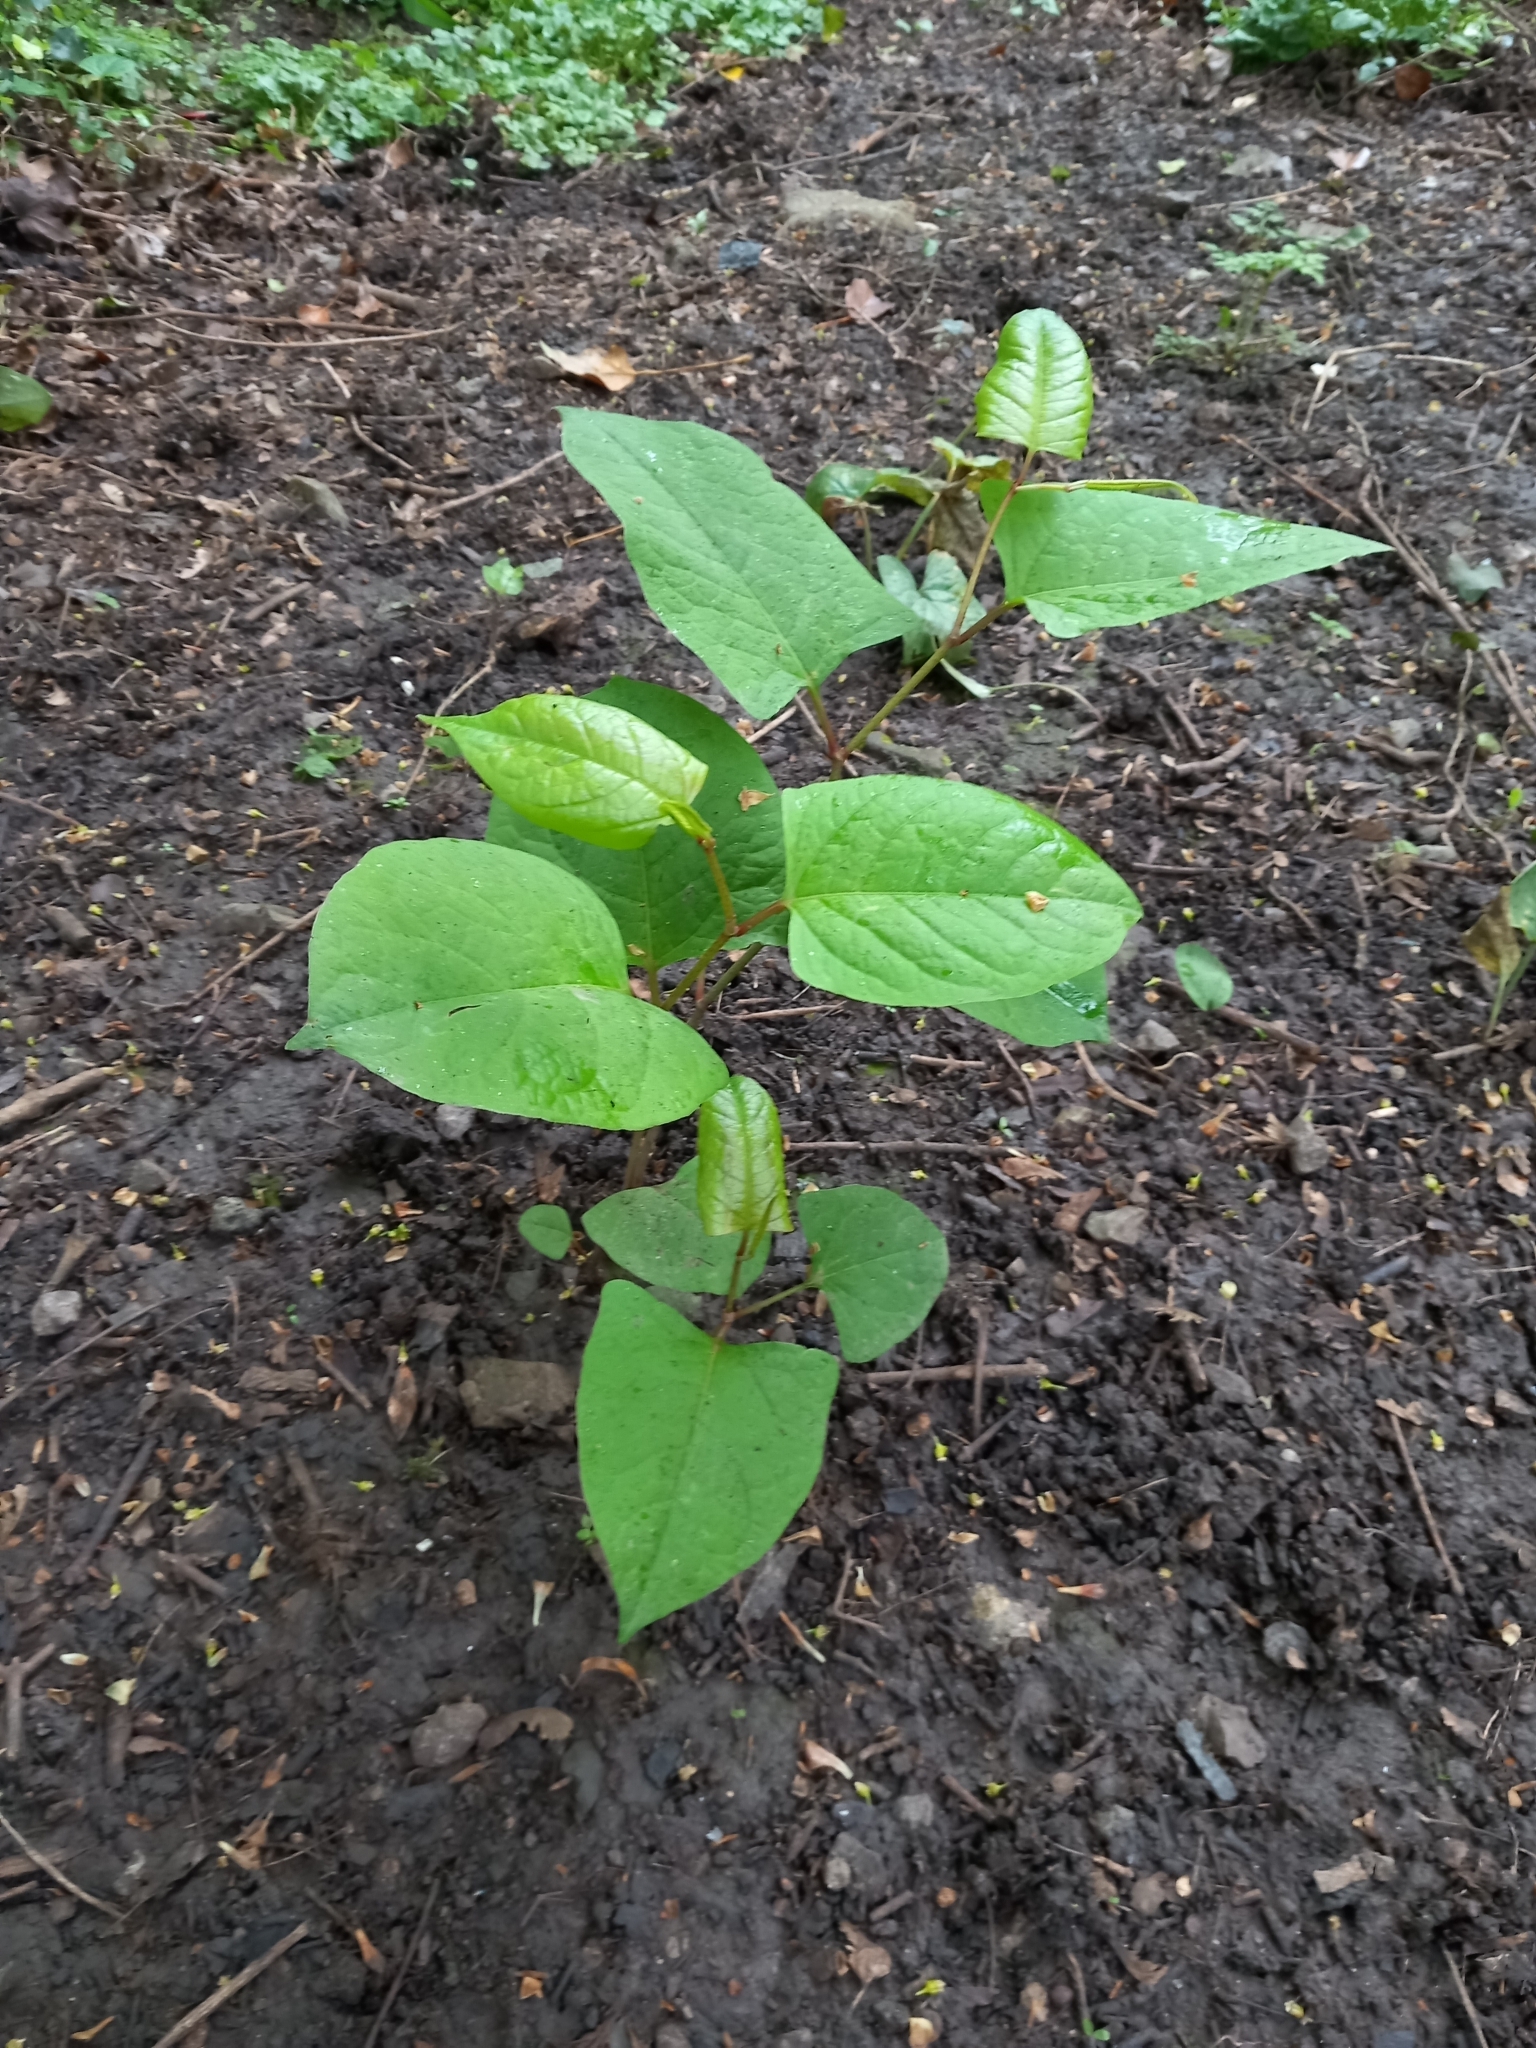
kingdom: Plantae
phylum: Tracheophyta
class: Magnoliopsida
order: Caryophyllales
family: Polygonaceae
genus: Reynoutria
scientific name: Reynoutria japonica
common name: Japanese knotweed
